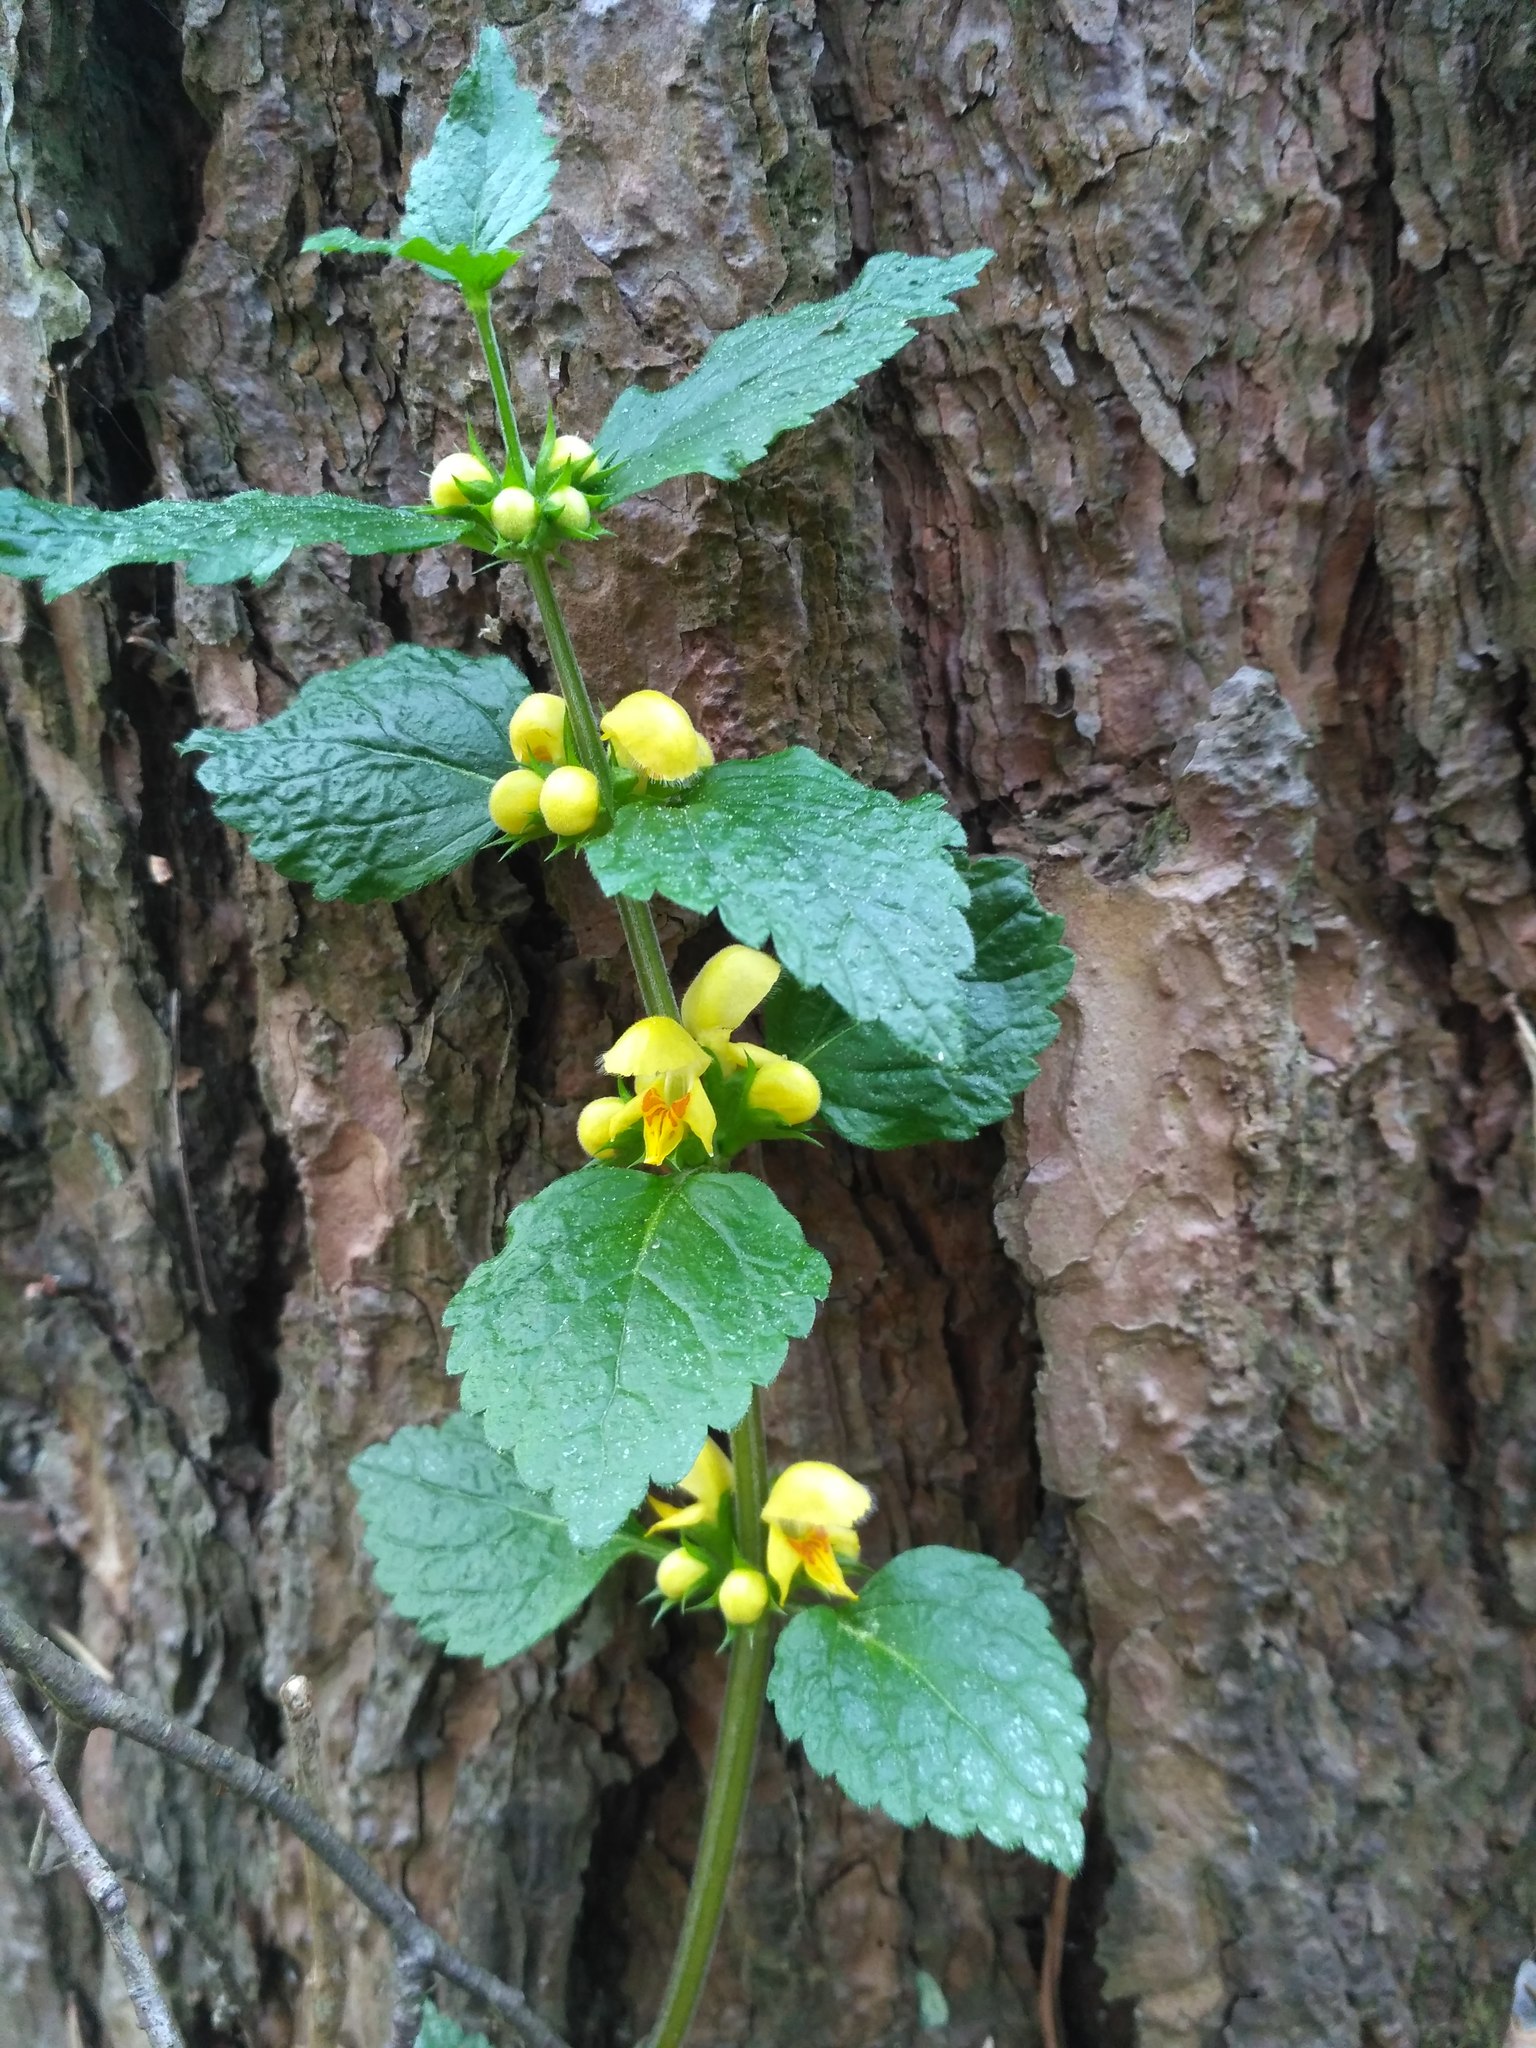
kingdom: Plantae
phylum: Tracheophyta
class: Magnoliopsida
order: Lamiales
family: Lamiaceae
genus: Lamium
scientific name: Lamium galeobdolon
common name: Yellow archangel
